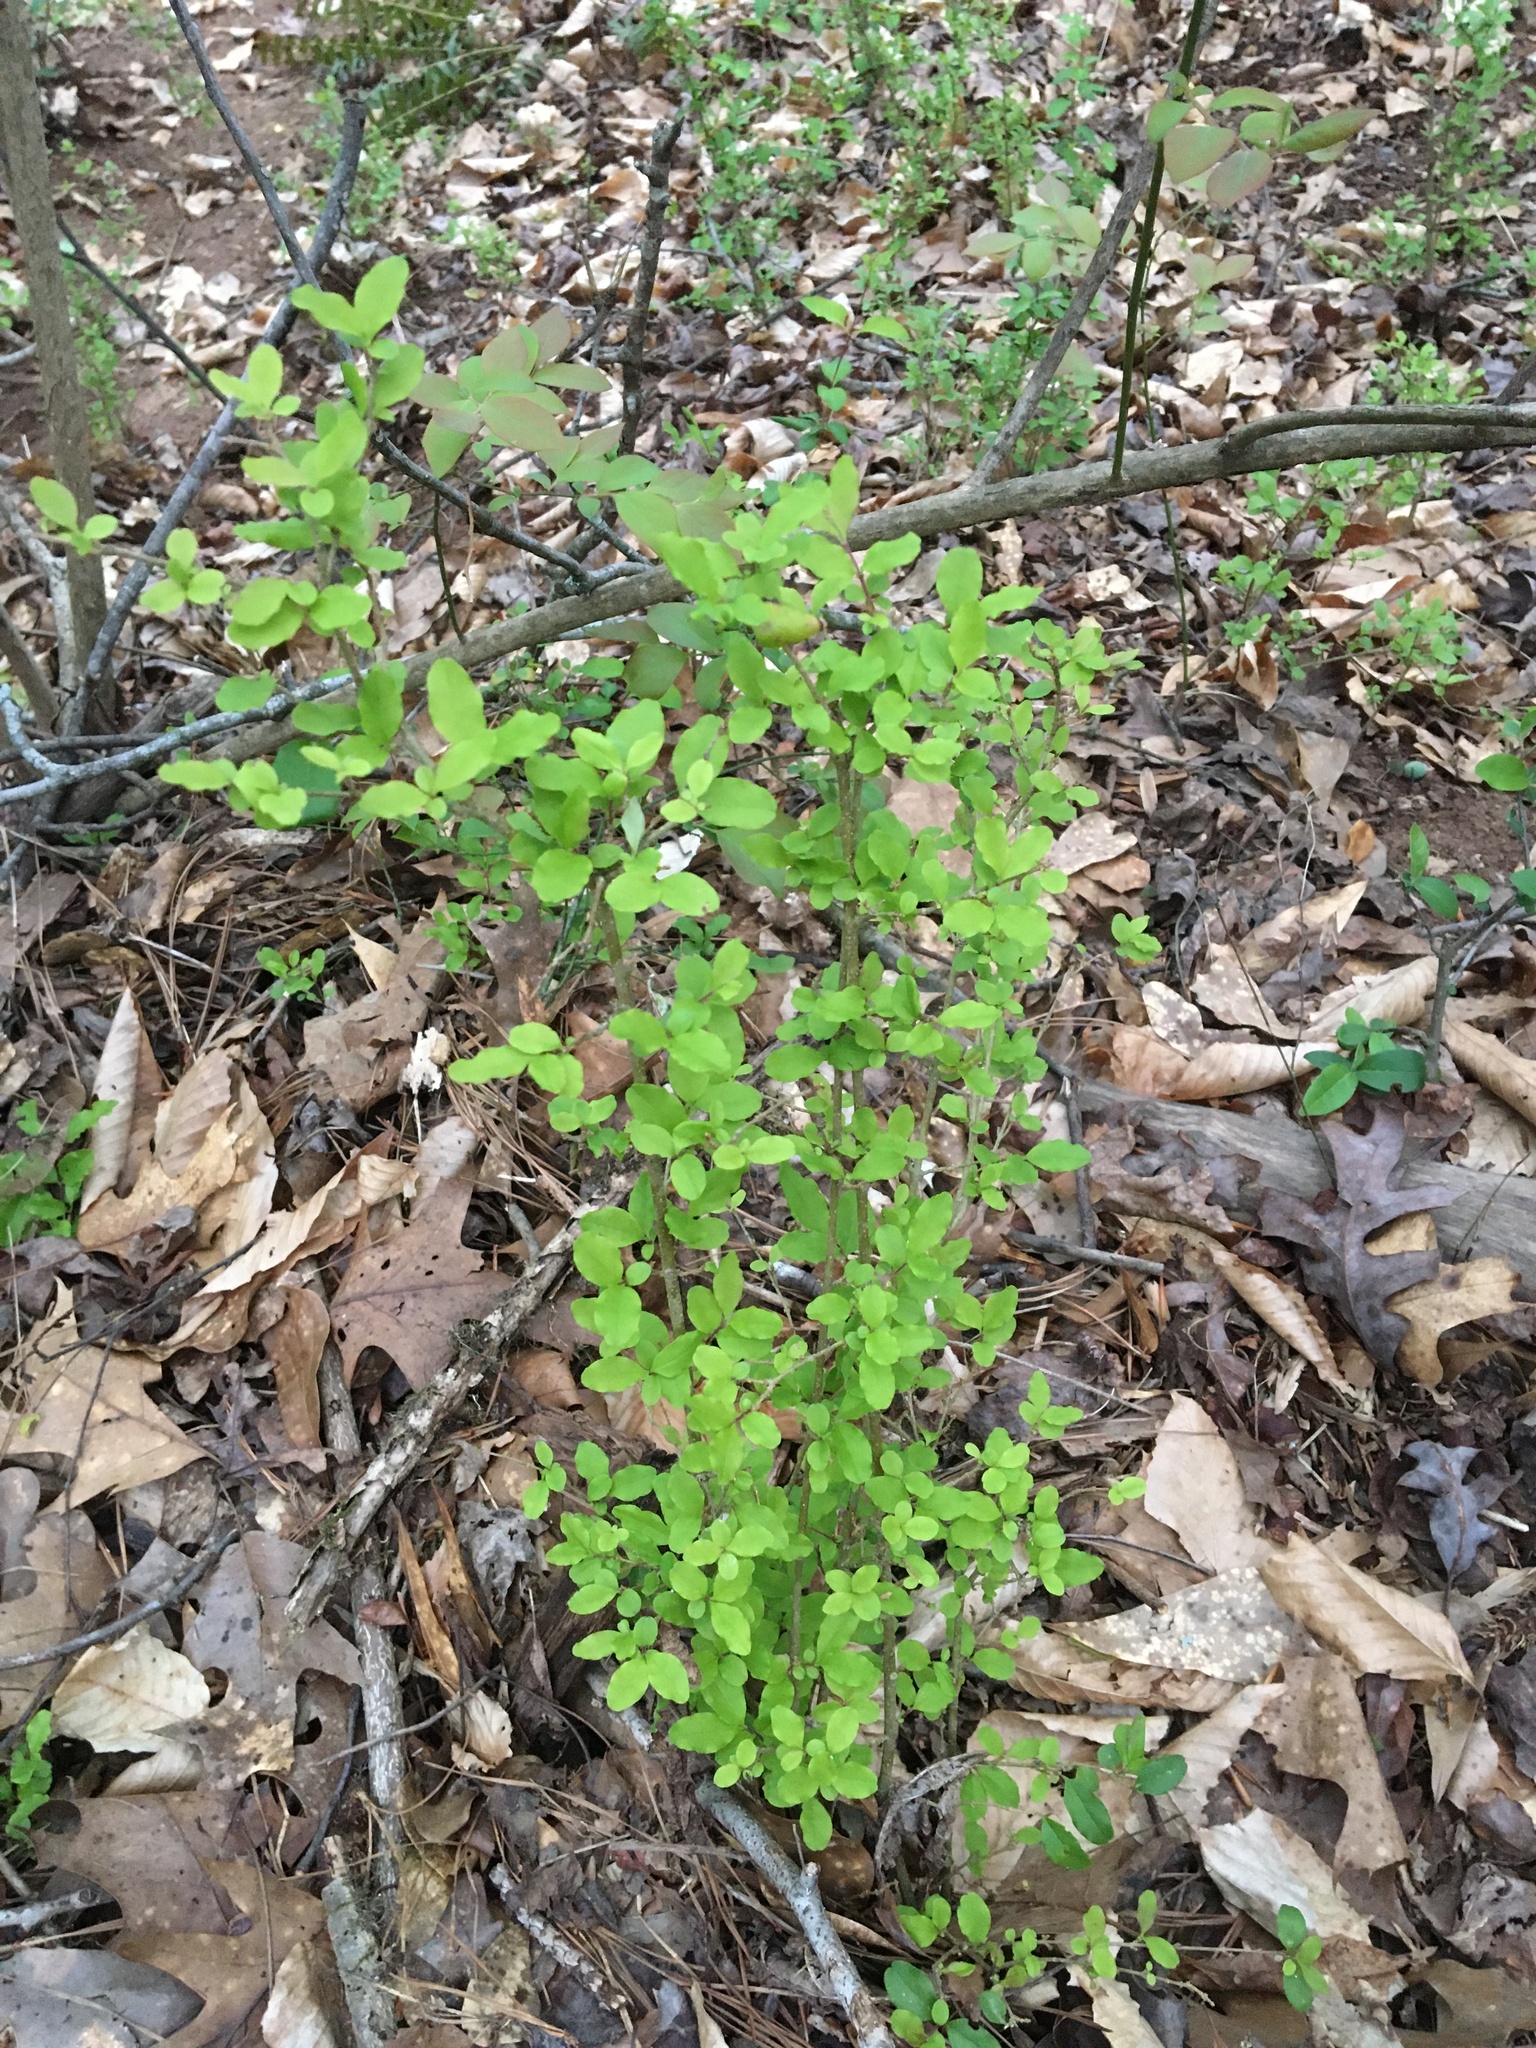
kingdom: Plantae
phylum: Tracheophyta
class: Magnoliopsida
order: Lamiales
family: Oleaceae
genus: Ligustrum
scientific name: Ligustrum sinense
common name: Chinese privet
